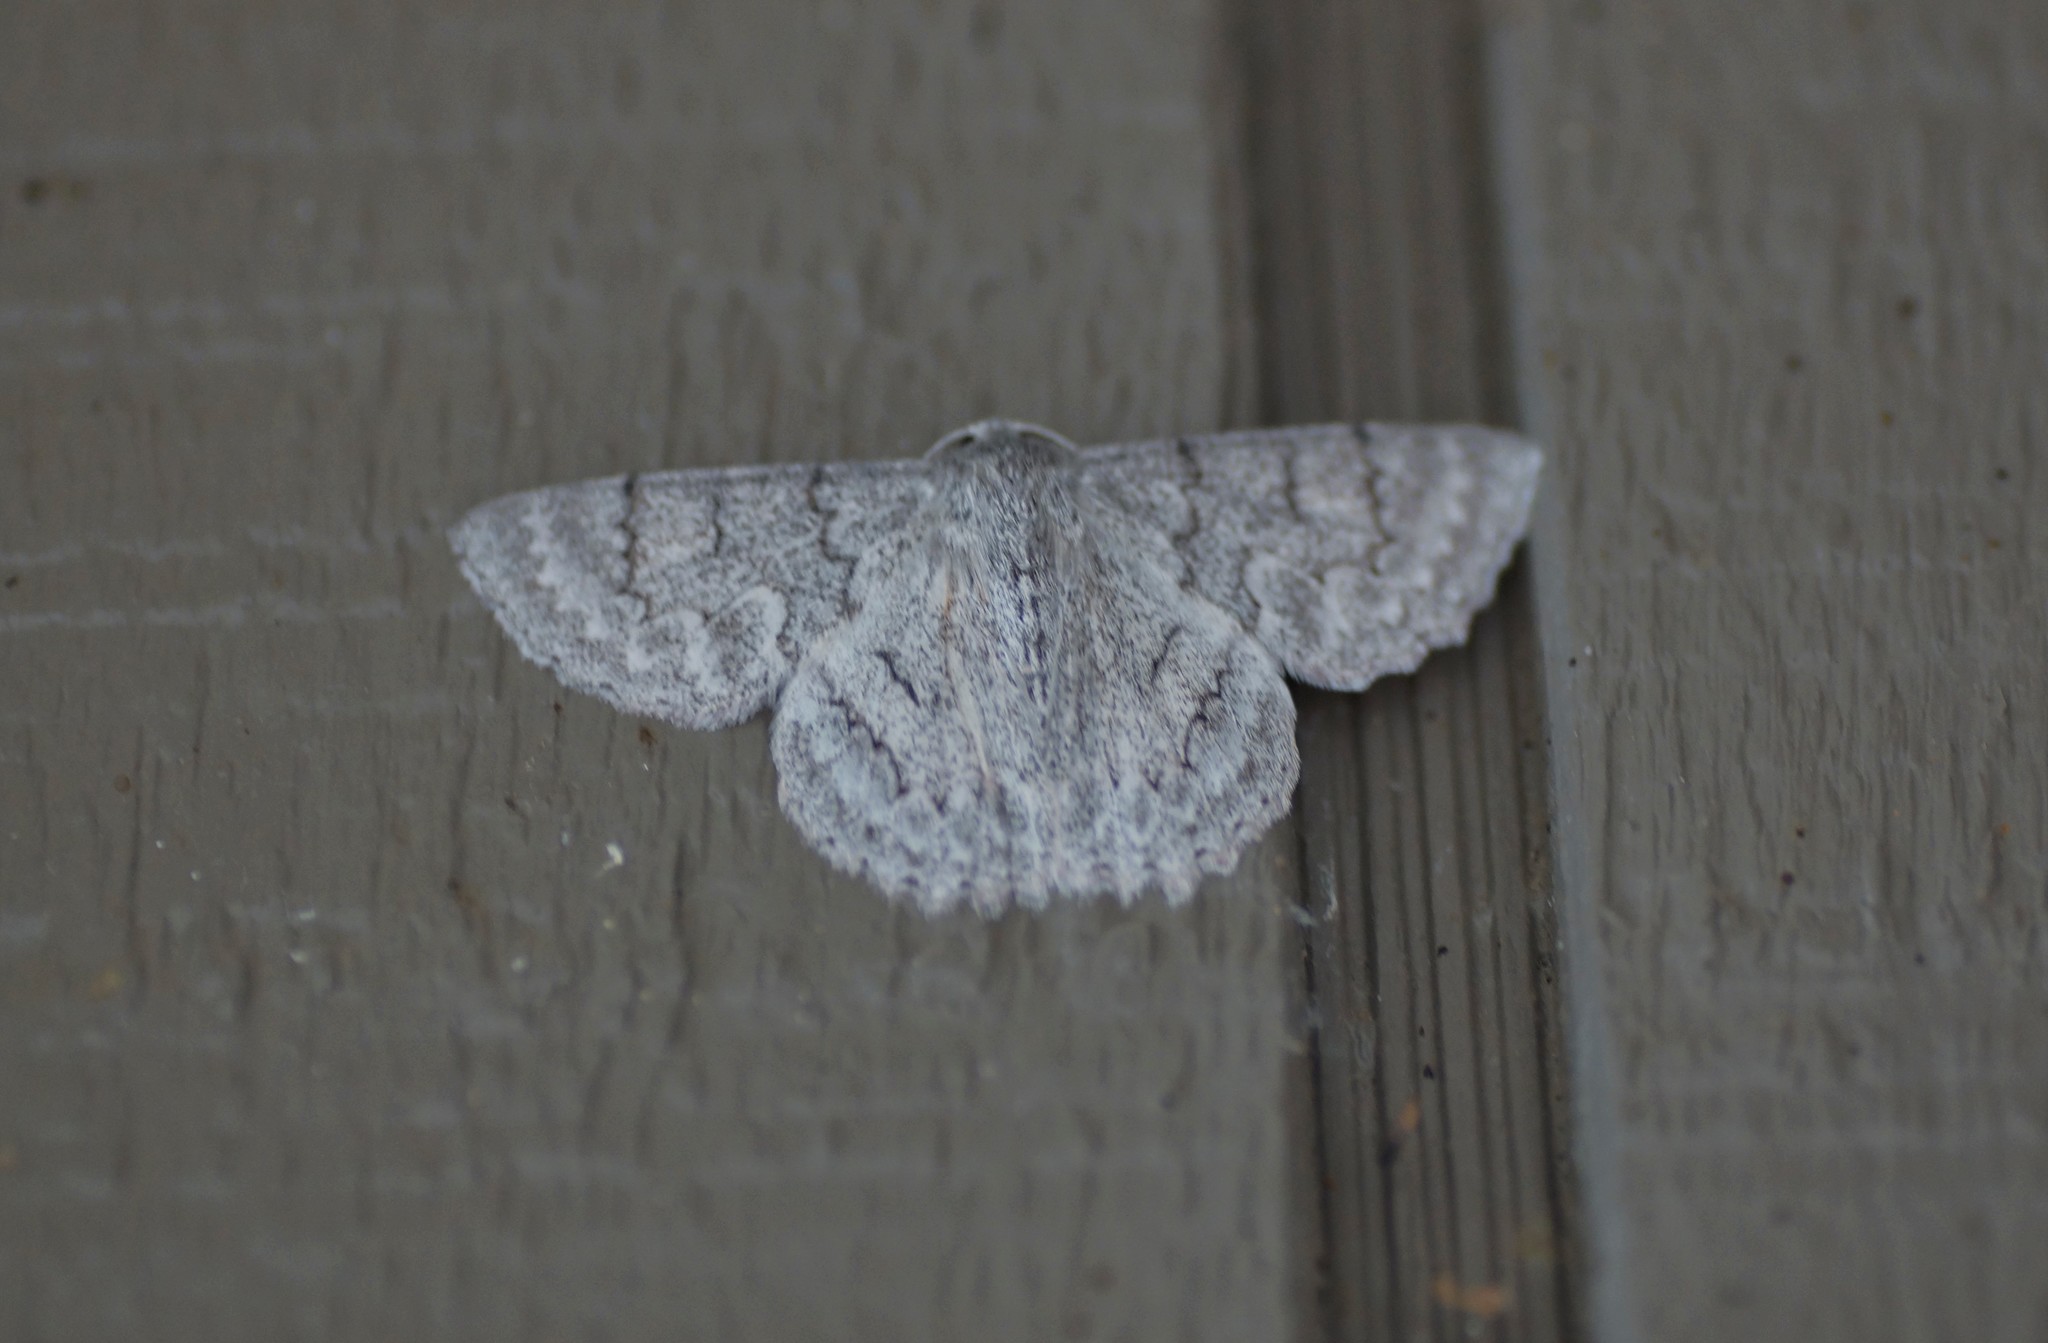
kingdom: Animalia
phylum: Arthropoda
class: Insecta
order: Lepidoptera
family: Geometridae
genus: Crypsiphona
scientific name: Crypsiphona ocultaria
